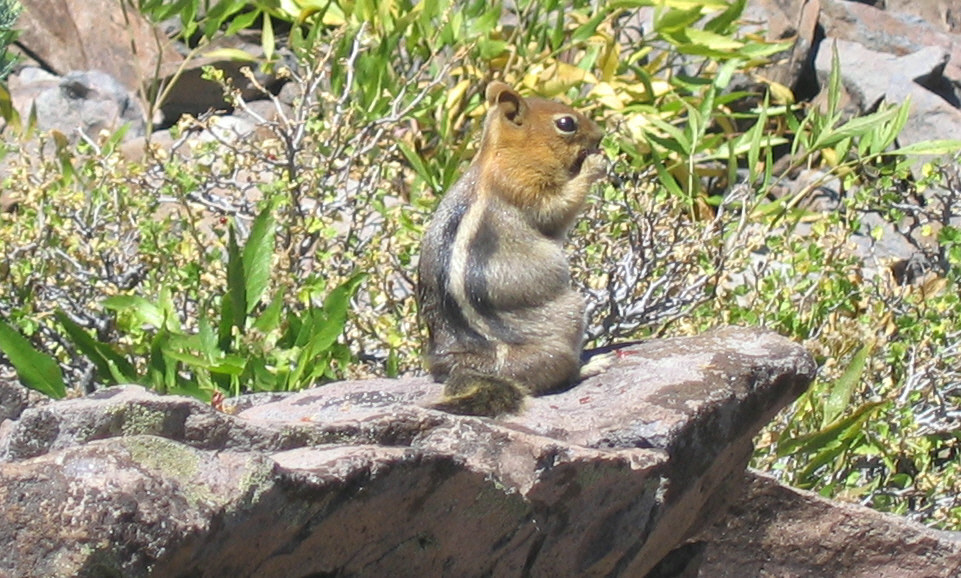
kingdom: Animalia
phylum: Chordata
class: Mammalia
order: Rodentia
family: Sciuridae
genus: Callospermophilus
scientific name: Callospermophilus lateralis
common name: Golden-mantled ground squirrel
